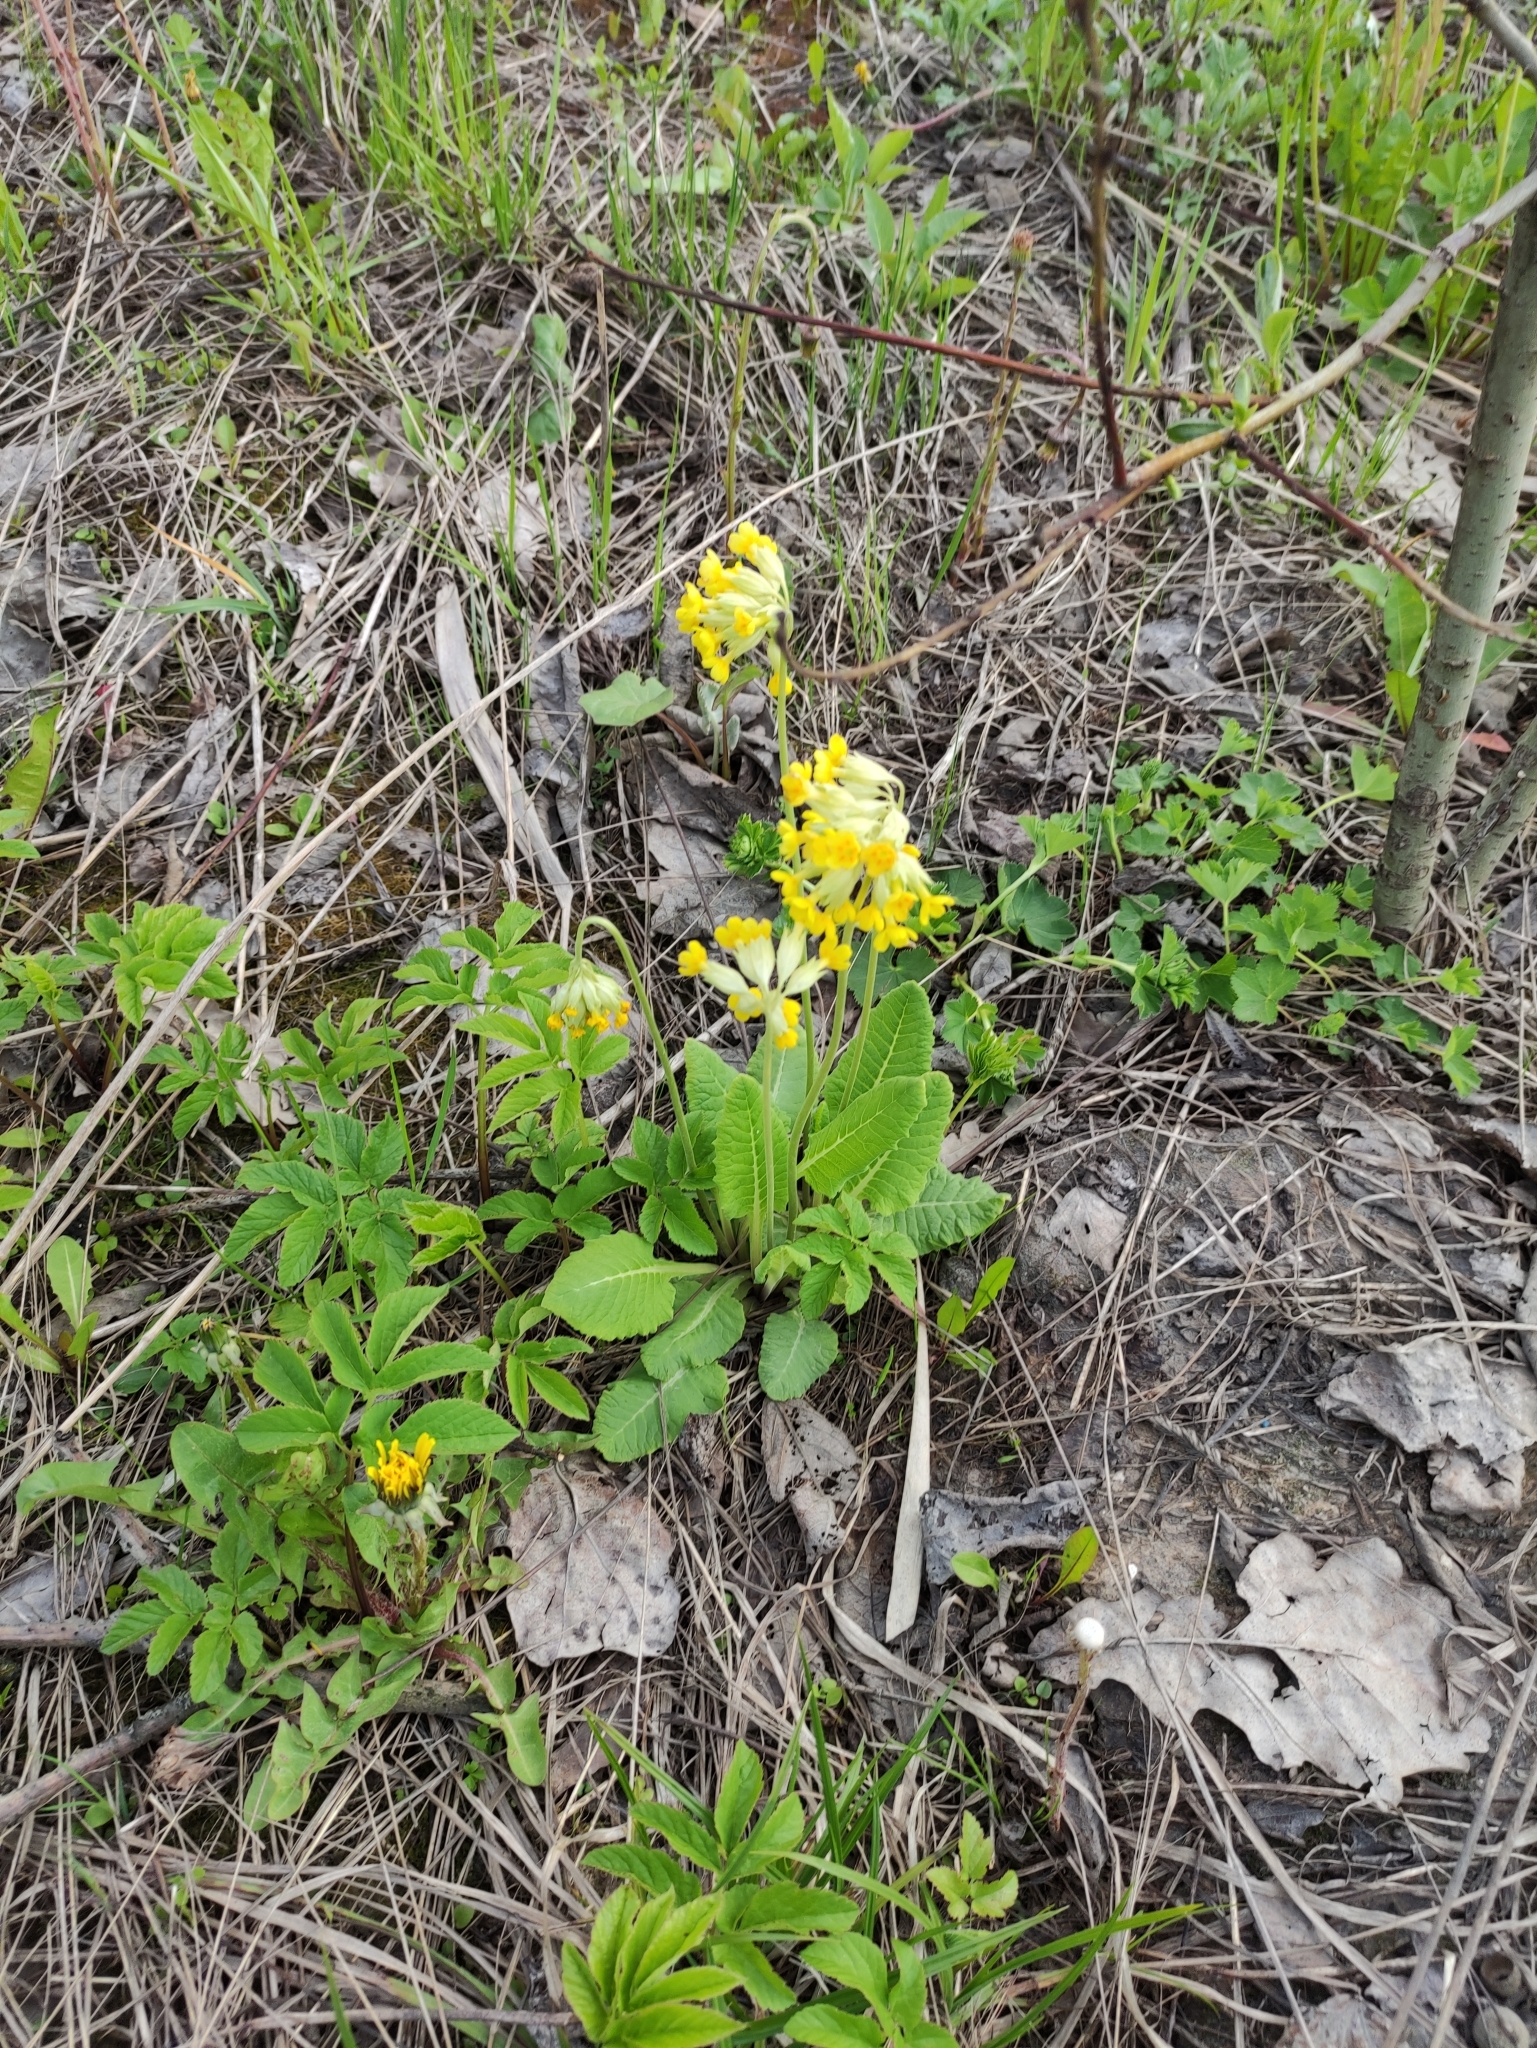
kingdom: Plantae
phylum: Tracheophyta
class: Magnoliopsida
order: Ericales
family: Primulaceae
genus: Primula
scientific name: Primula veris
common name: Cowslip
